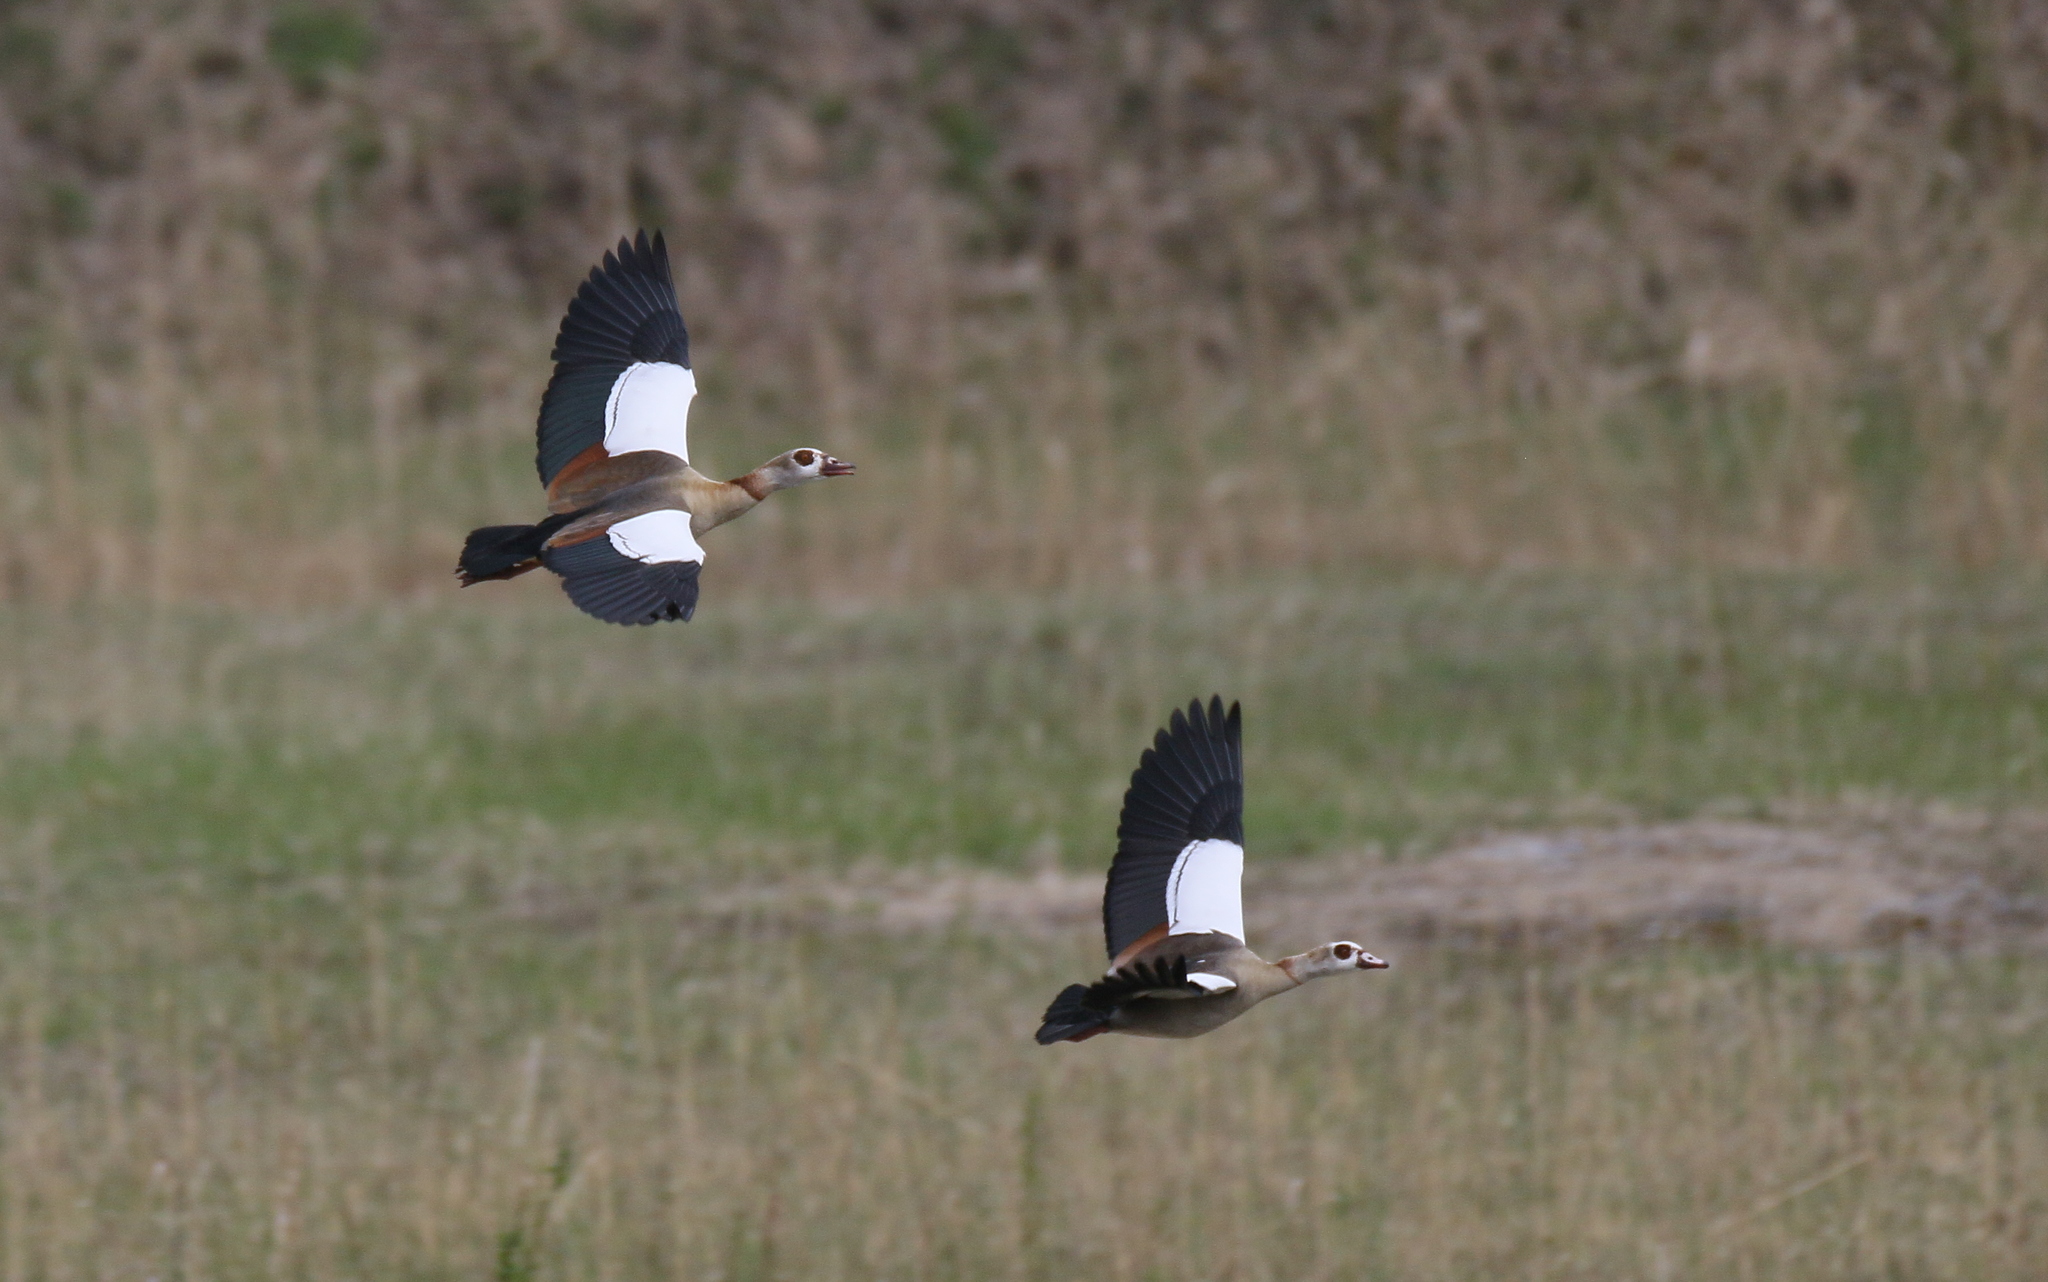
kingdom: Animalia
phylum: Chordata
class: Aves
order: Anseriformes
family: Anatidae
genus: Alopochen
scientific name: Alopochen aegyptiaca
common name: Egyptian goose
